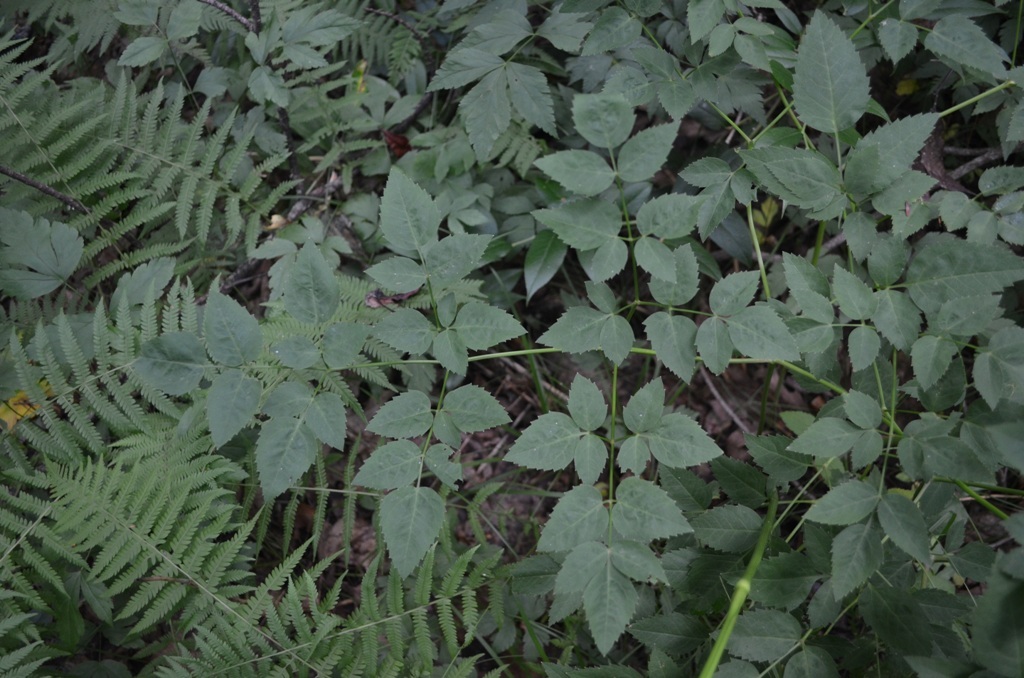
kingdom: Plantae
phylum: Tracheophyta
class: Magnoliopsida
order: Apiales
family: Apiaceae
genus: Ligusticum
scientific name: Ligusticum canadense
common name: American lovage
